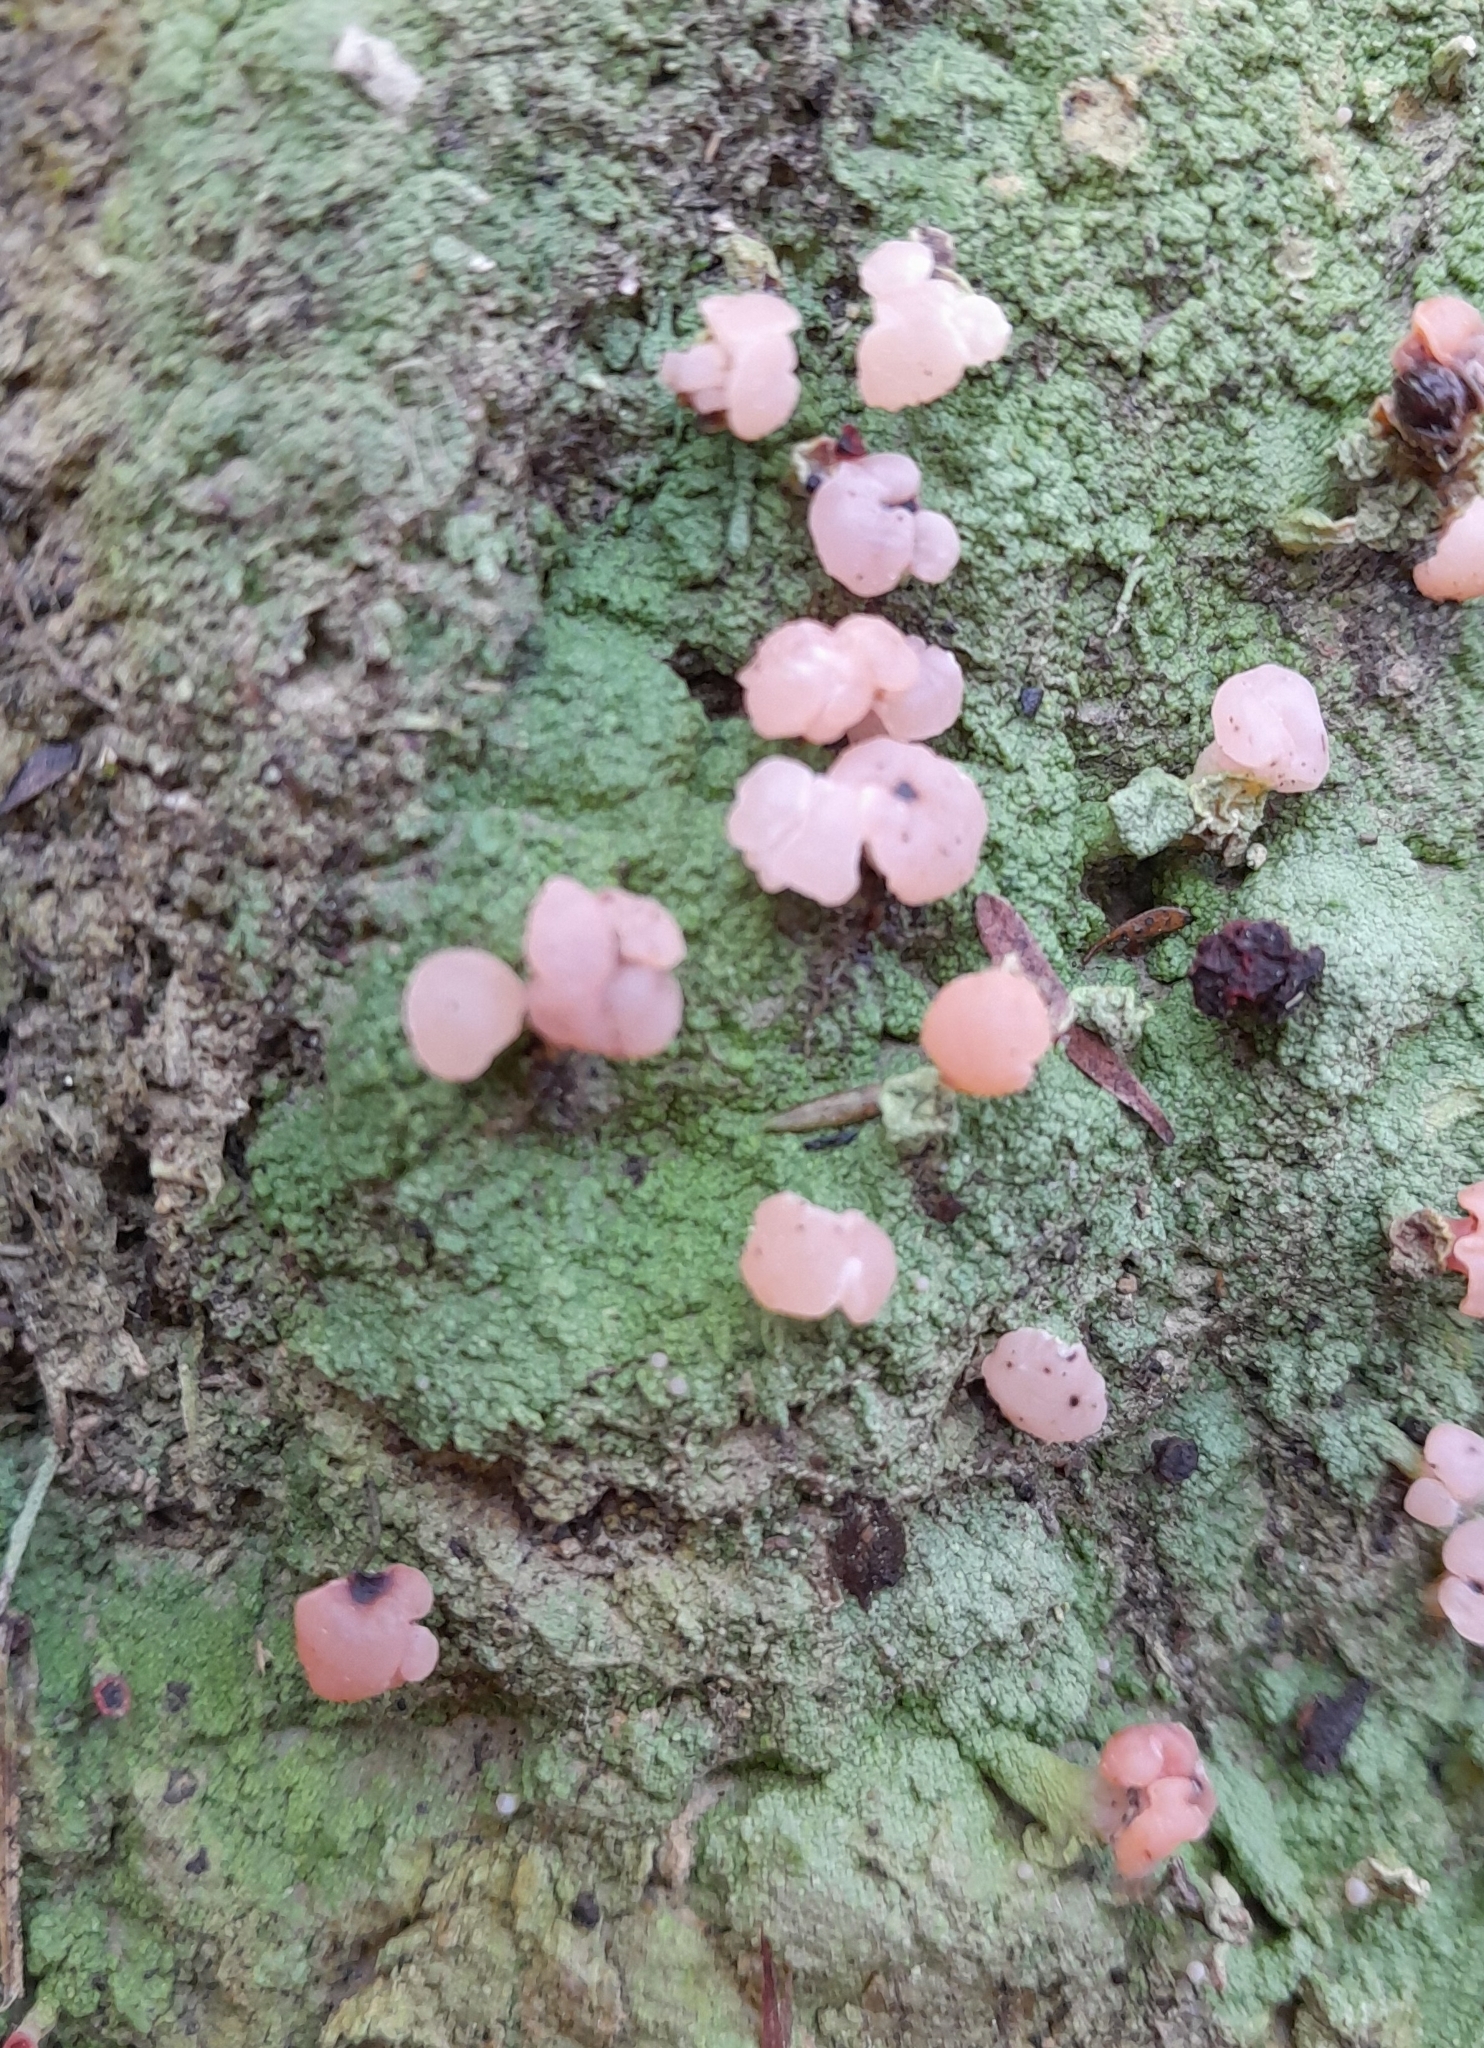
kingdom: Fungi
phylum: Ascomycota
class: Lecanoromycetes
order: Baeomycetales
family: Baeomycetaceae
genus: Baeomyces
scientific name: Baeomyces heteromorphus
